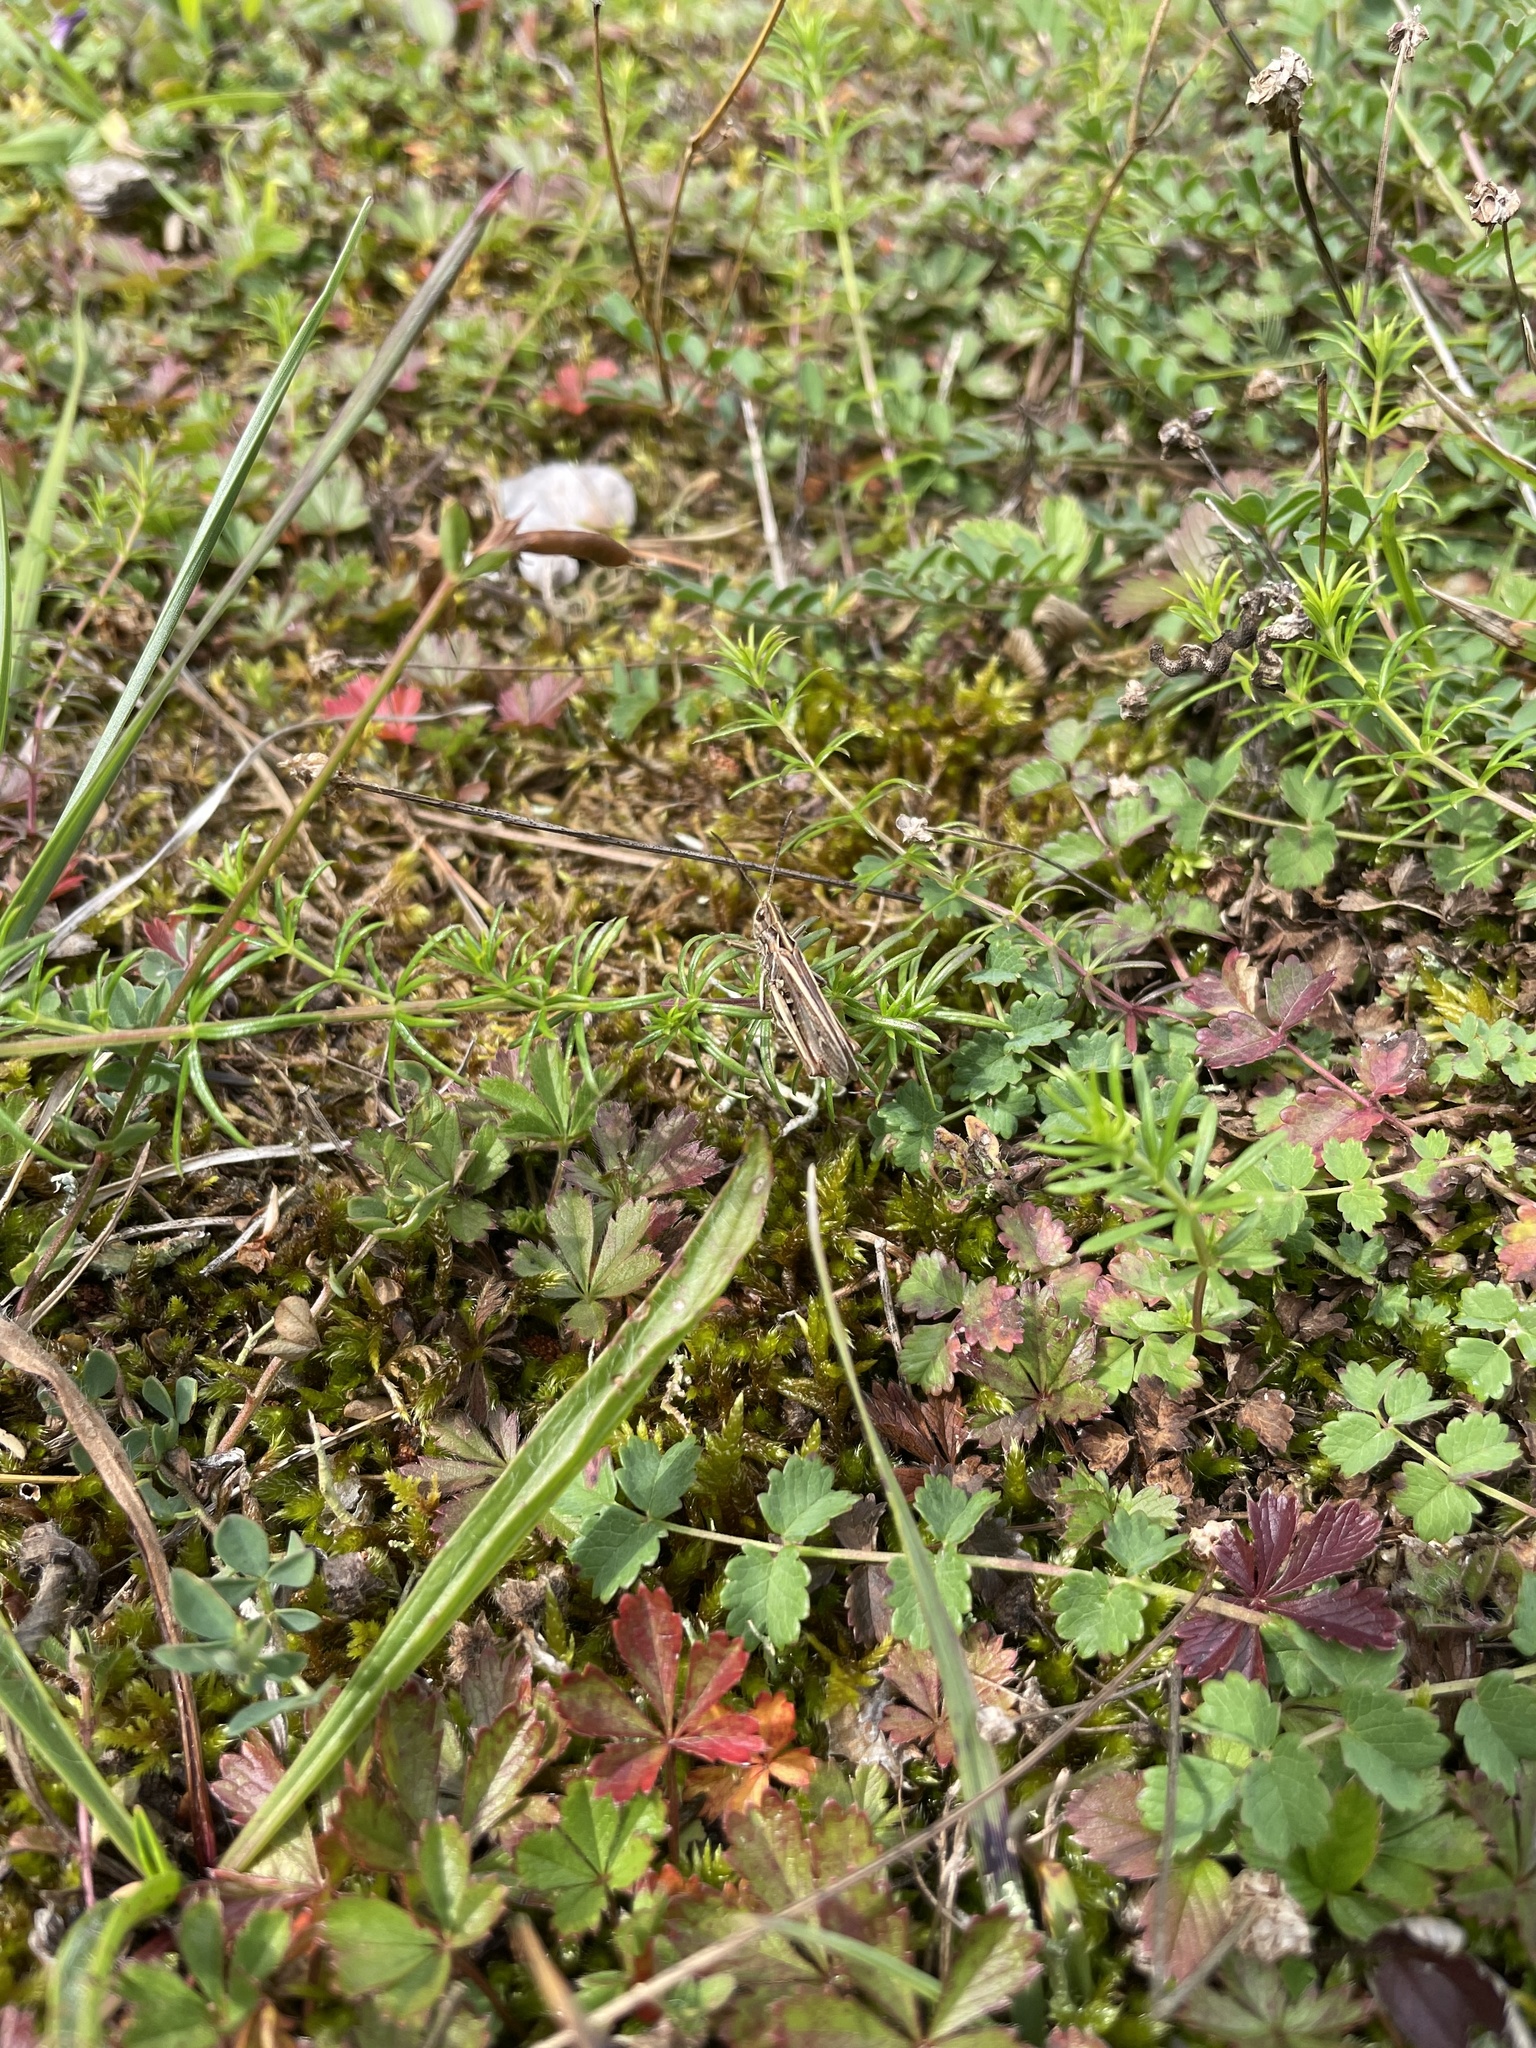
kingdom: Animalia
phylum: Arthropoda
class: Insecta
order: Orthoptera
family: Acrididae
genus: Chorthippus
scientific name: Chorthippus brunneus
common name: Field grasshopper
